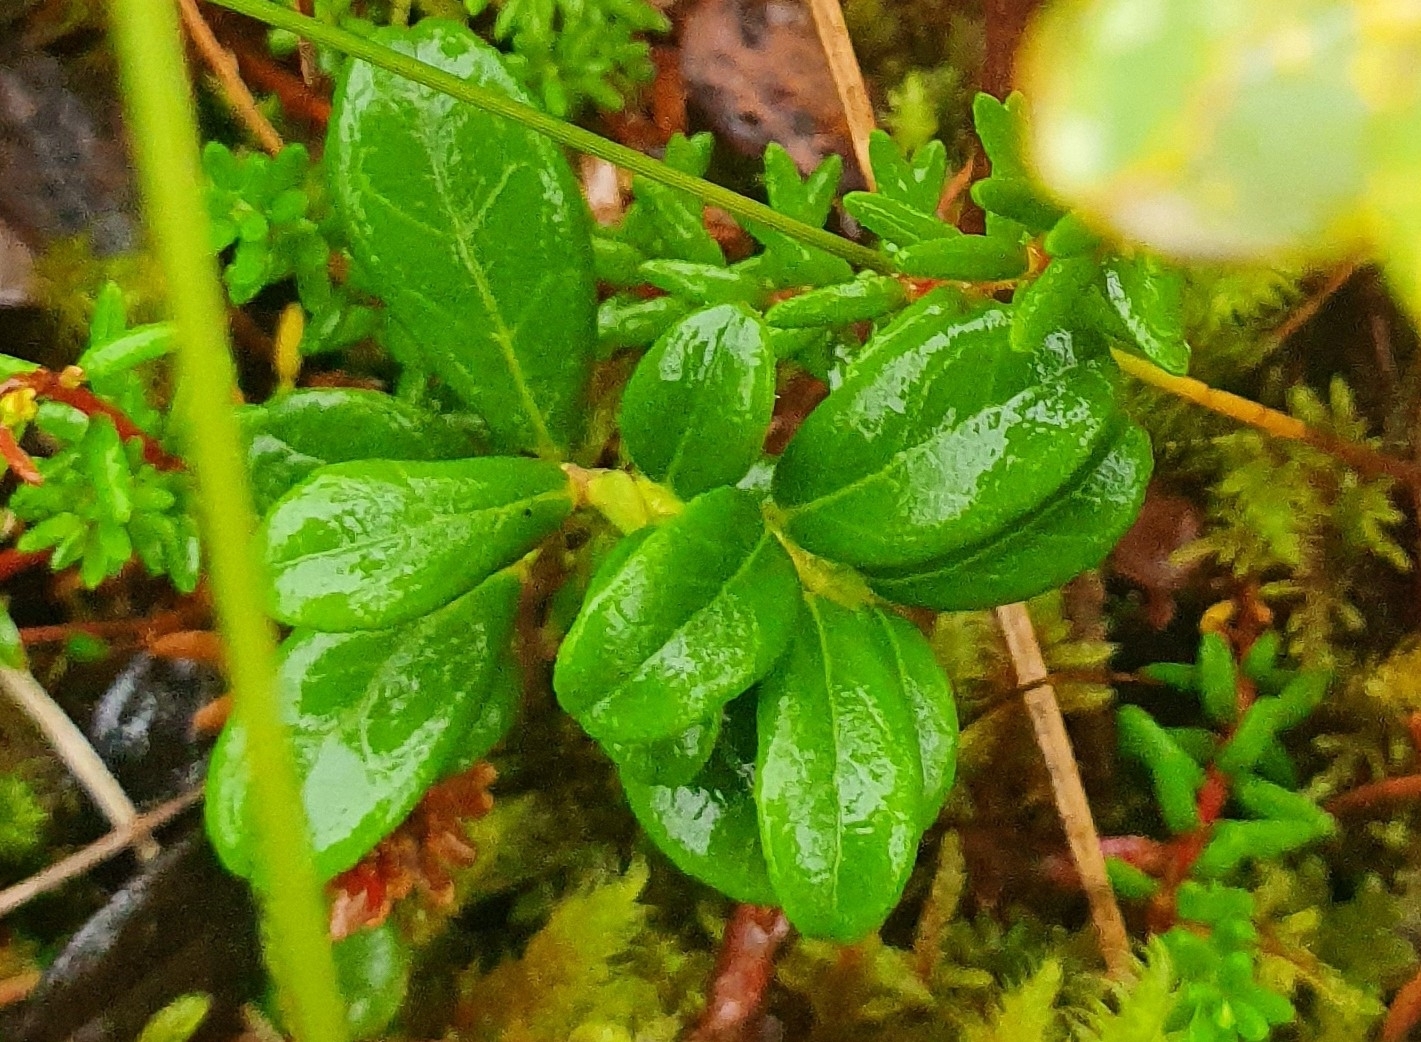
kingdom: Plantae
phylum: Tracheophyta
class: Magnoliopsida
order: Ericales
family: Ericaceae
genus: Vaccinium
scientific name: Vaccinium vitis-idaea
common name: Cowberry
